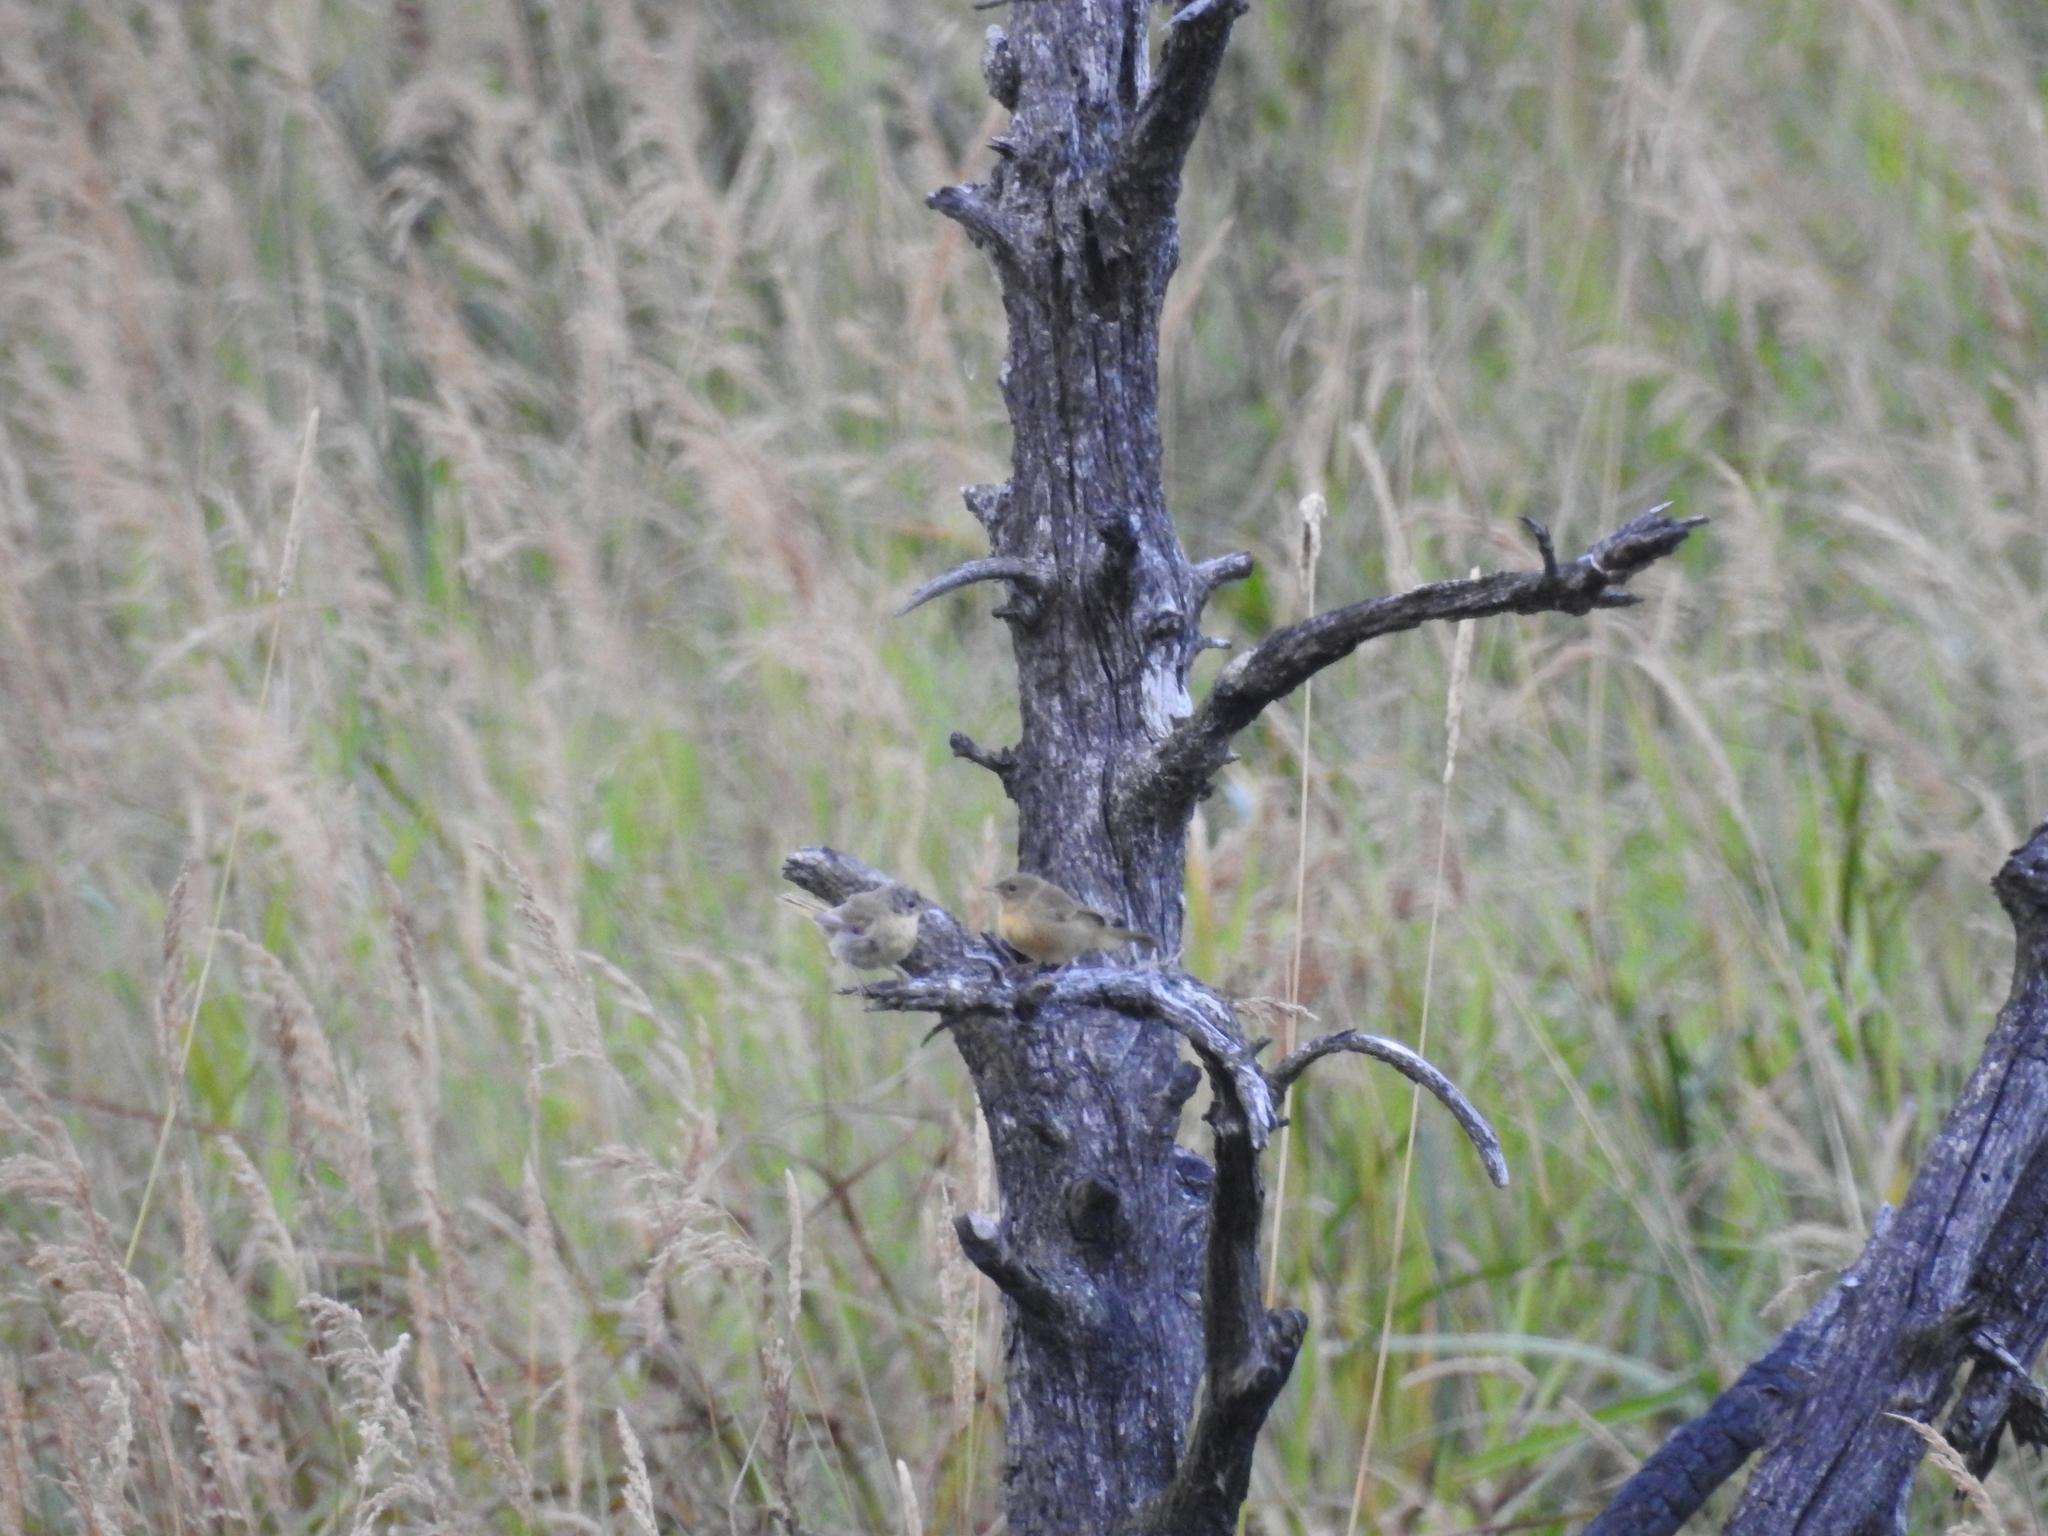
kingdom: Animalia
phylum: Chordata
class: Aves
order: Passeriformes
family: Parulidae
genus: Geothlypis
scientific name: Geothlypis trichas
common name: Common yellowthroat
